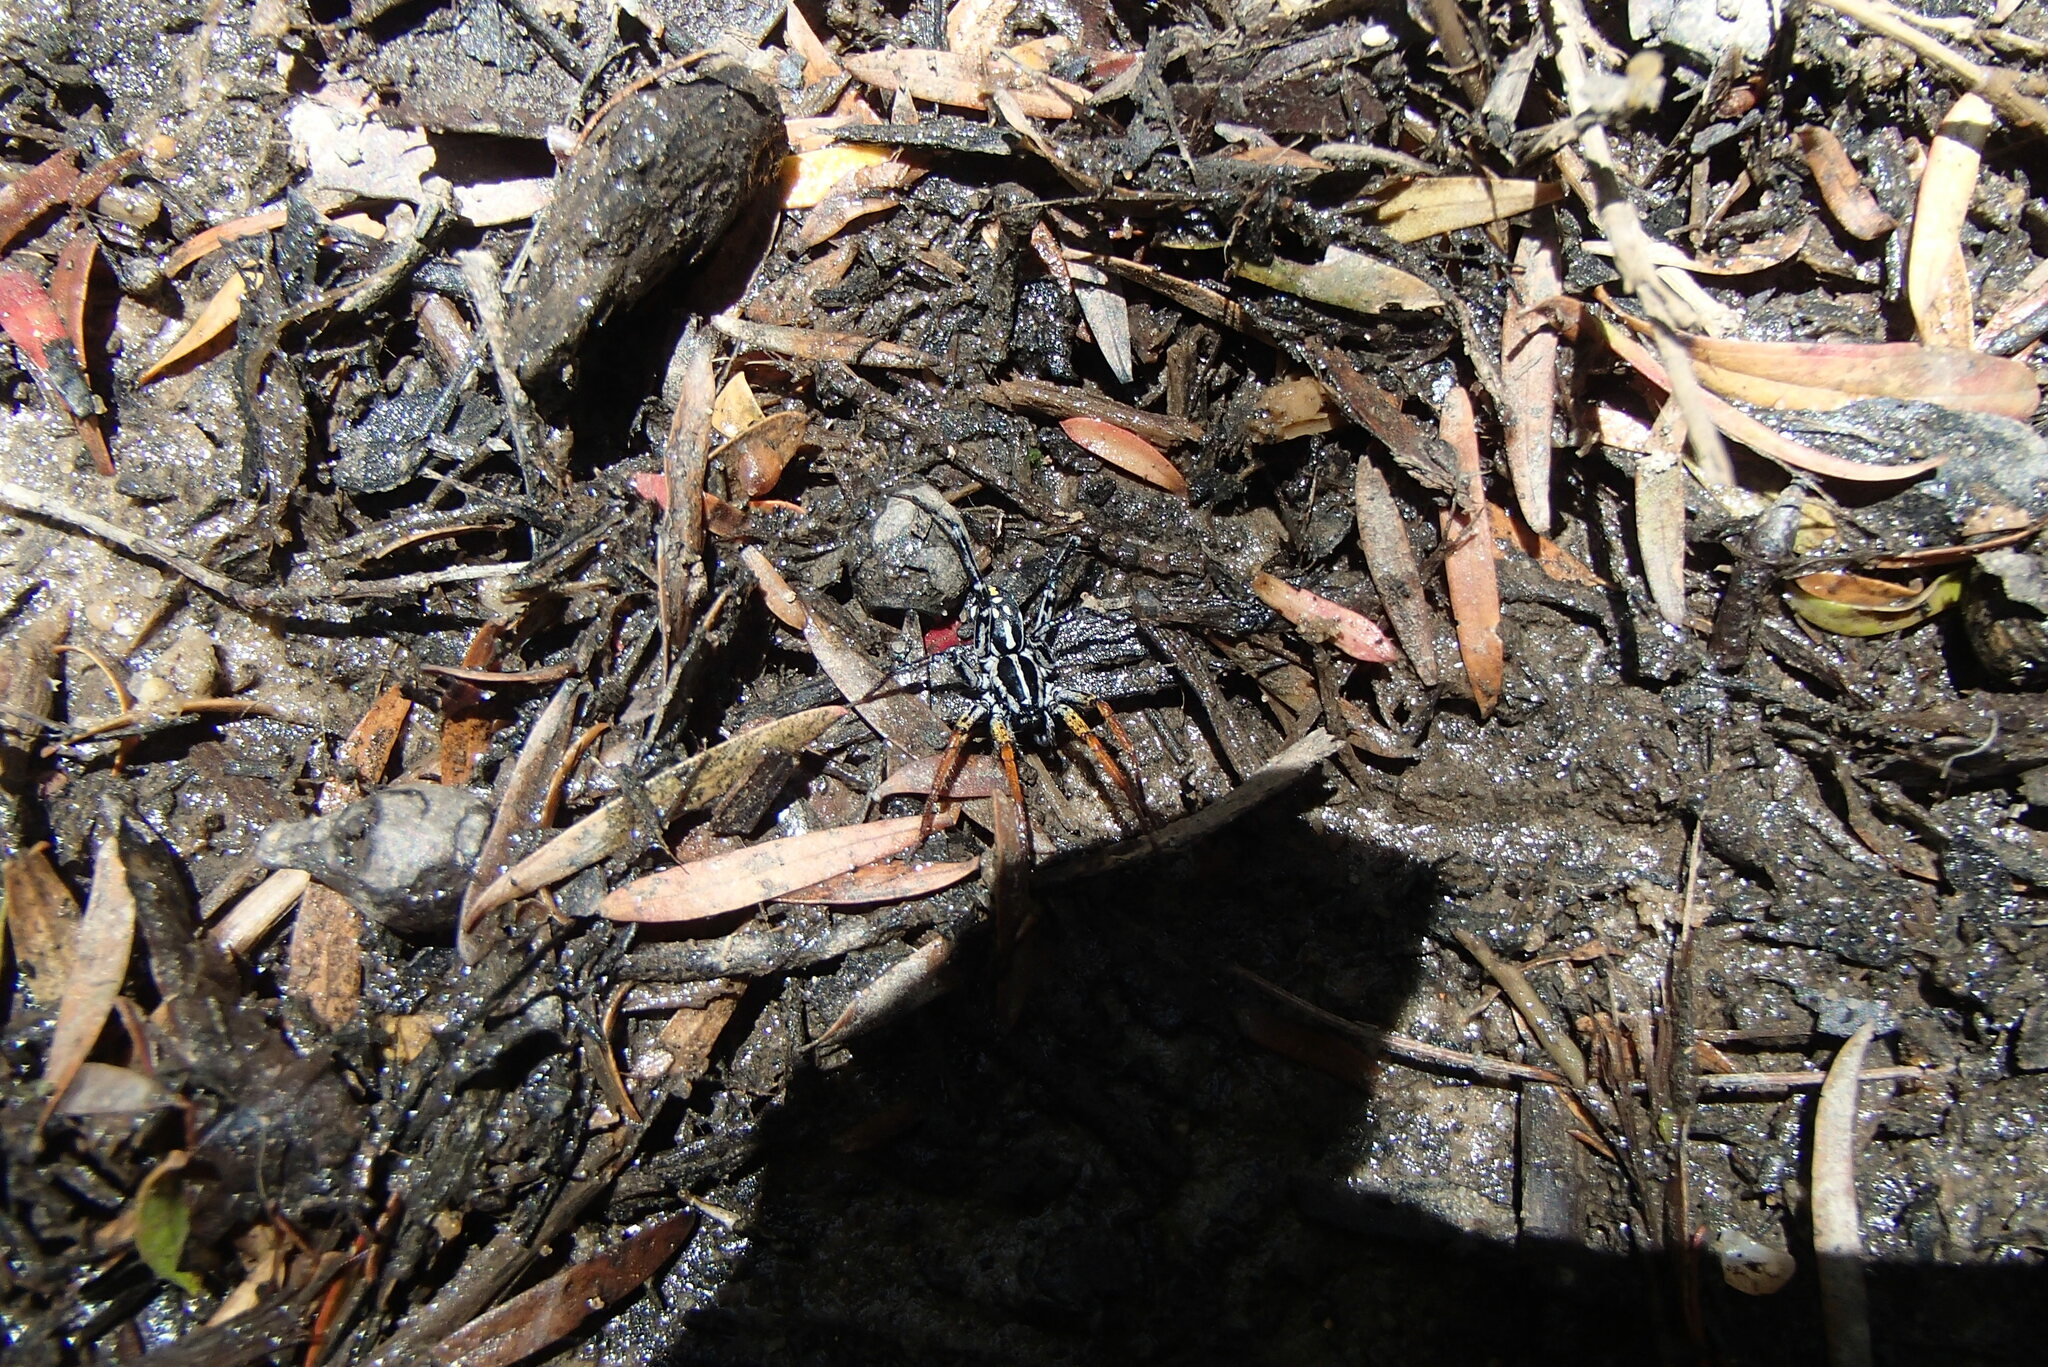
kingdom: Animalia
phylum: Arthropoda
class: Arachnida
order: Araneae
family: Corinnidae
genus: Nyssus
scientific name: Nyssus coloripes
